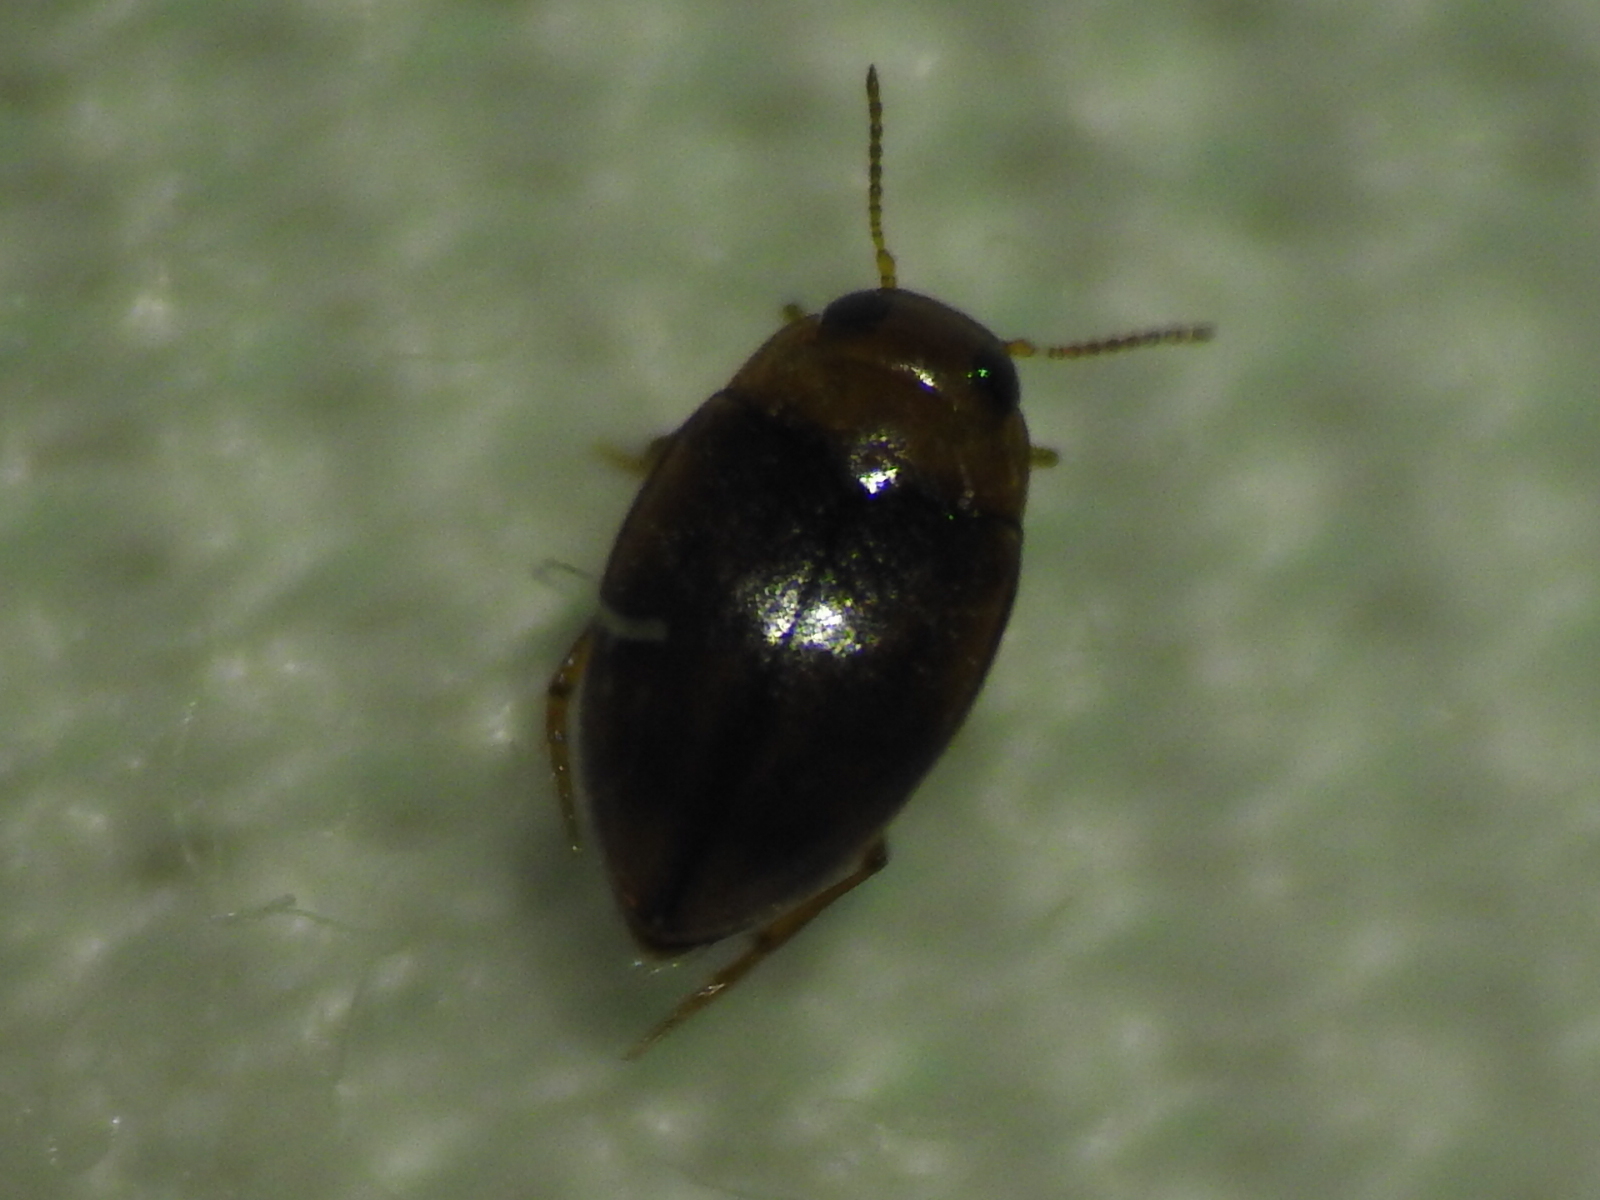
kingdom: Animalia
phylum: Arthropoda
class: Insecta
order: Coleoptera
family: Dytiscidae
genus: Uvarus
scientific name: Uvarus
